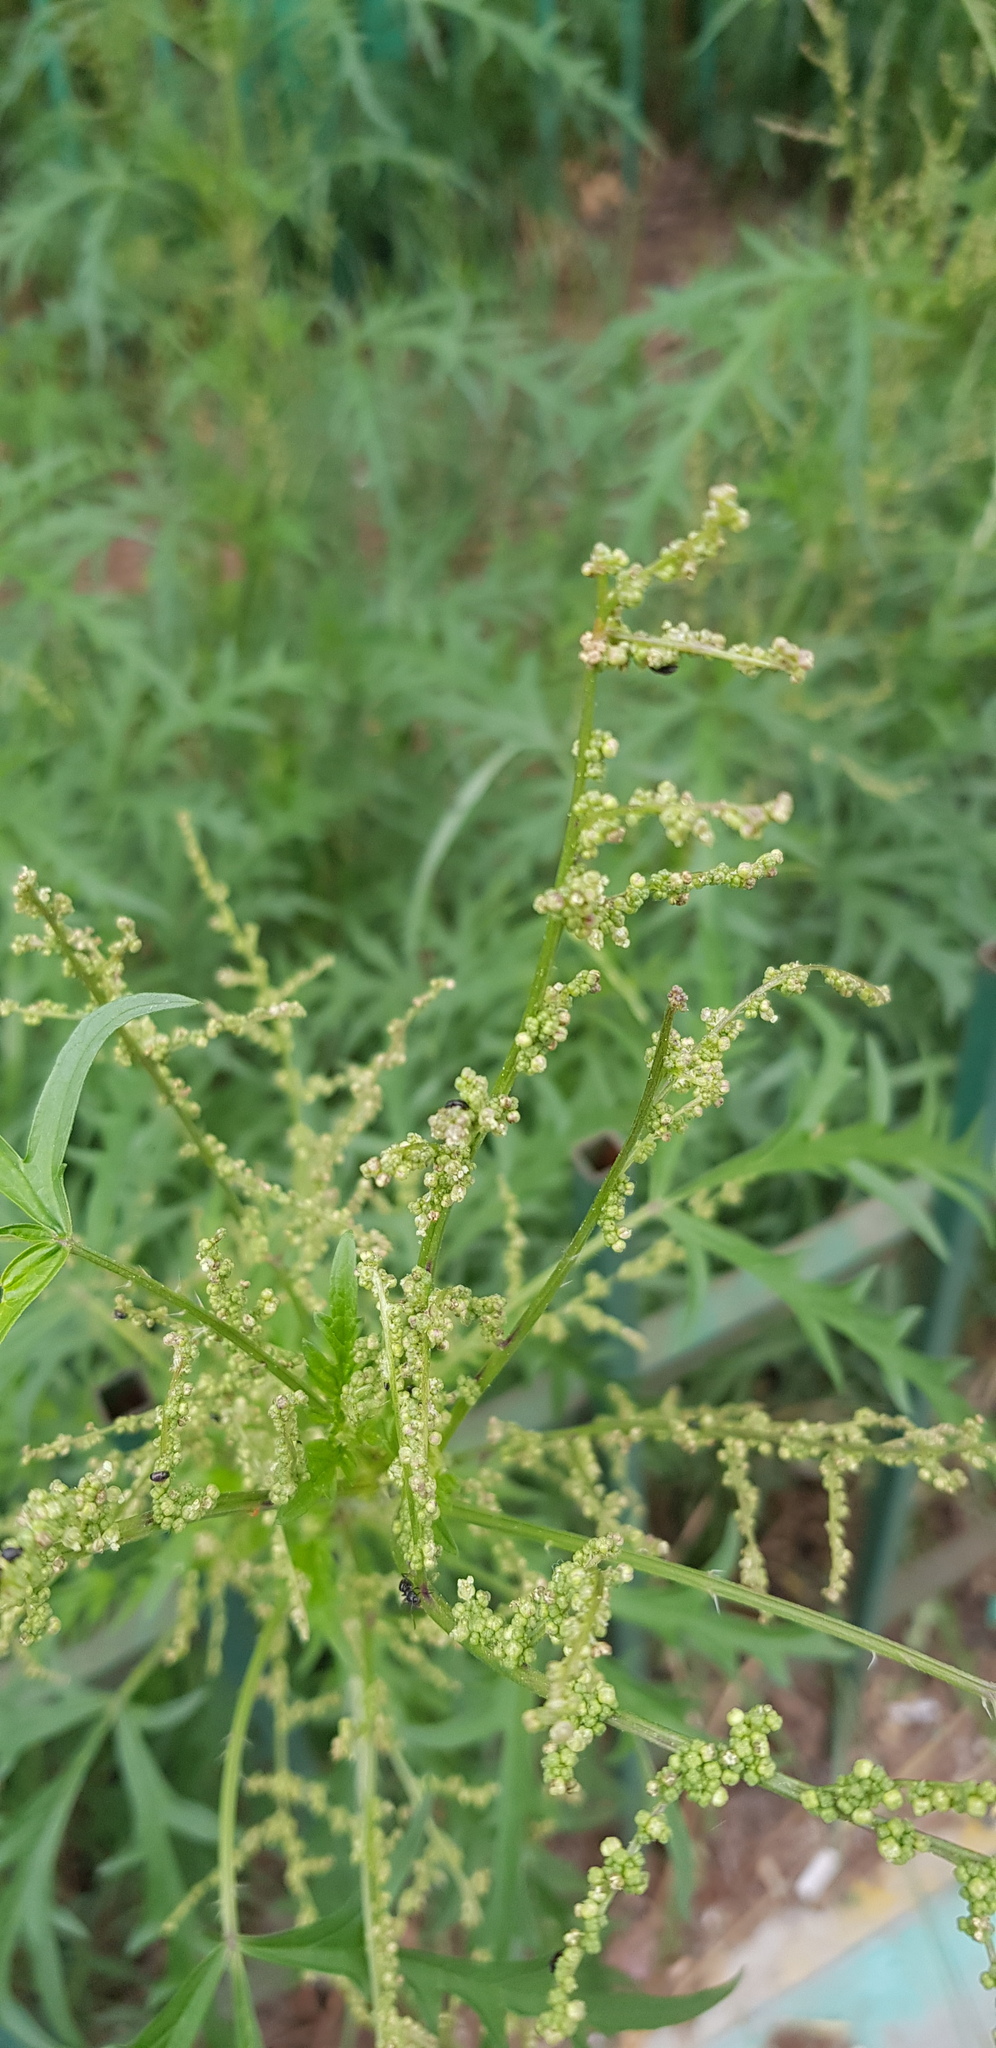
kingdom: Plantae
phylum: Tracheophyta
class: Magnoliopsida
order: Rosales
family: Urticaceae
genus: Urtica
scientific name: Urtica cannabina
